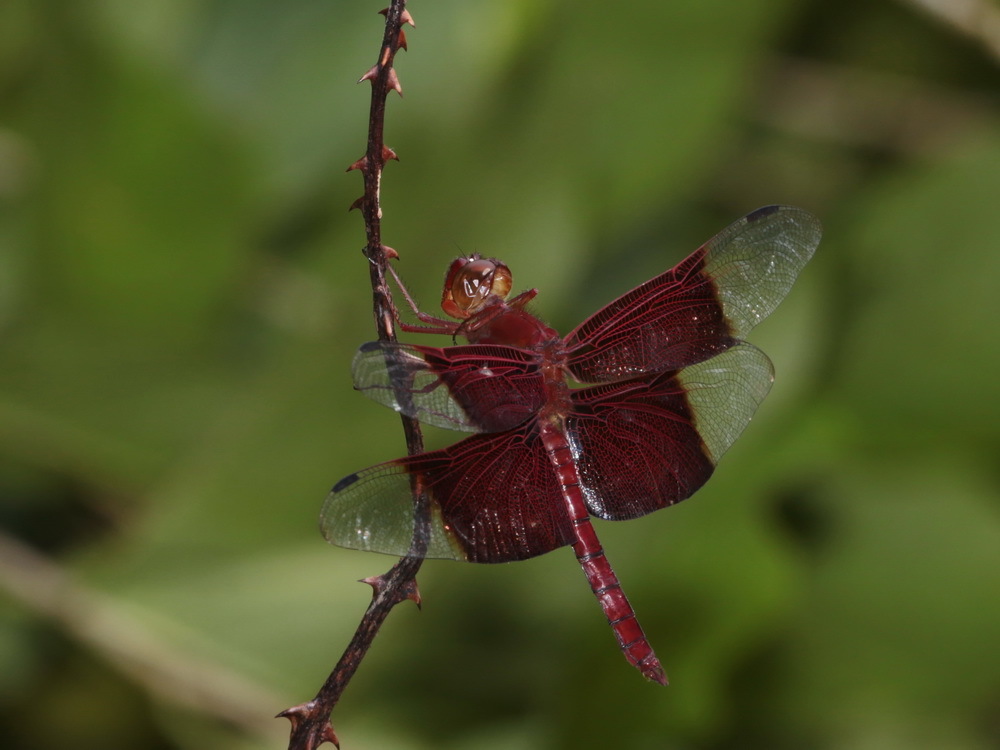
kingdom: Animalia
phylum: Arthropoda
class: Insecta
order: Odonata
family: Libellulidae
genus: Camacinia
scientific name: Camacinia gigantea
